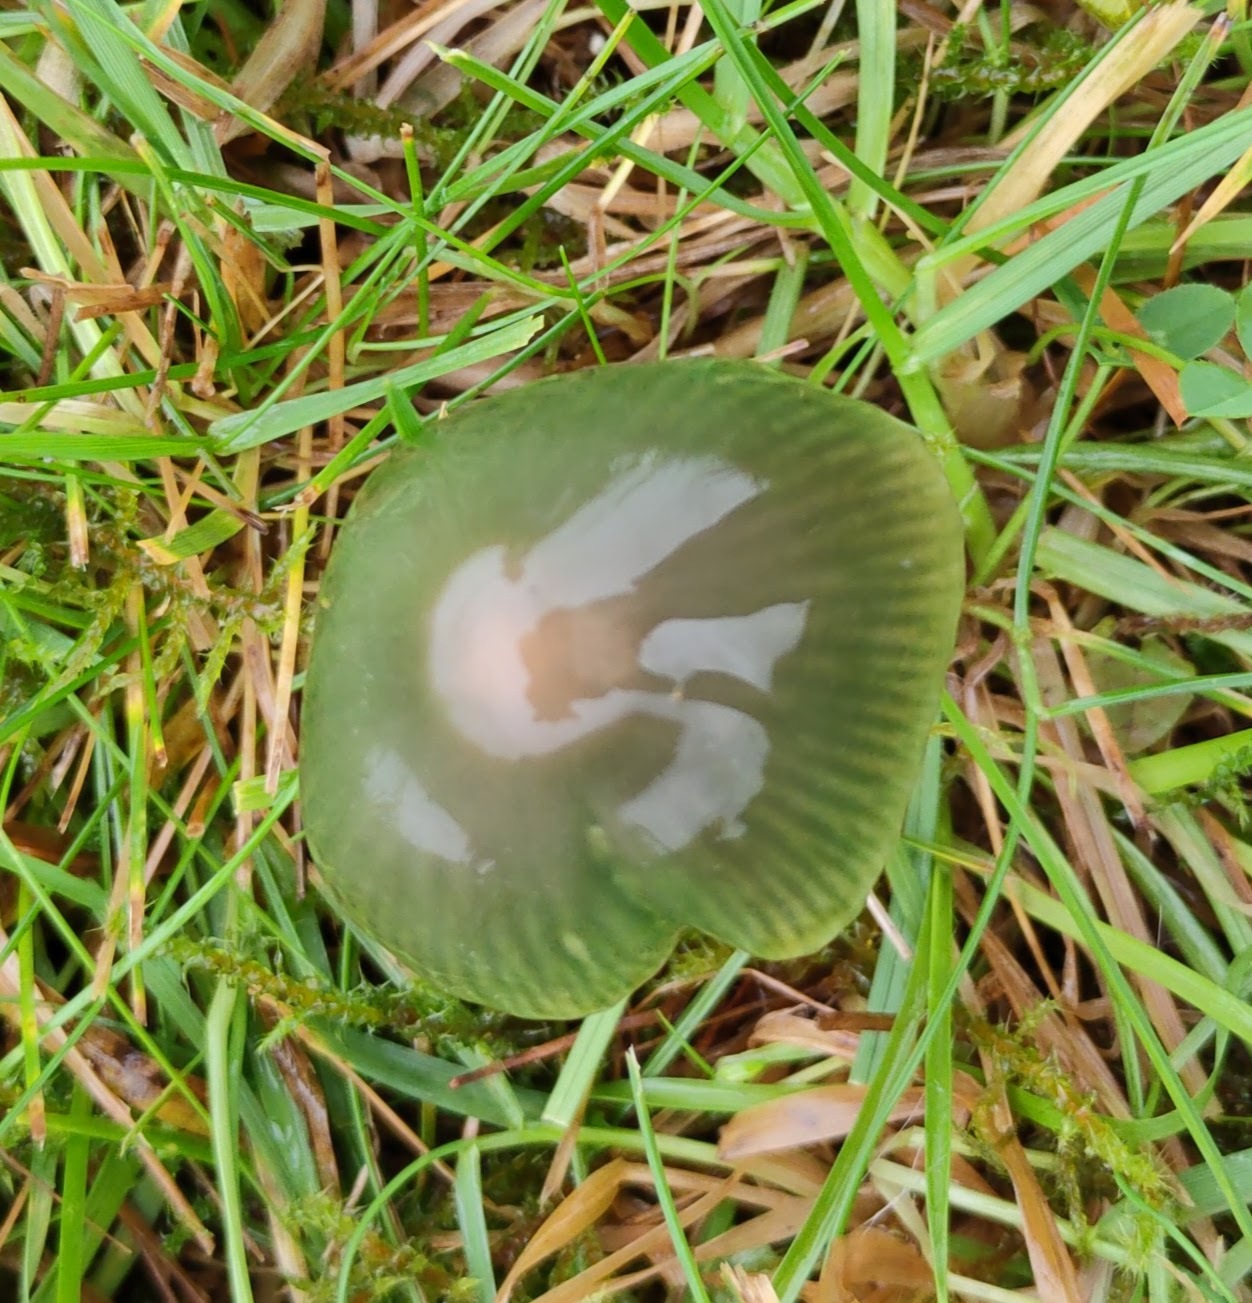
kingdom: Fungi
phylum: Basidiomycota
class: Agaricomycetes
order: Agaricales
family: Hygrophoraceae
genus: Gliophorus
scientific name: Gliophorus psittacinus
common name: Parrot wax-cap
